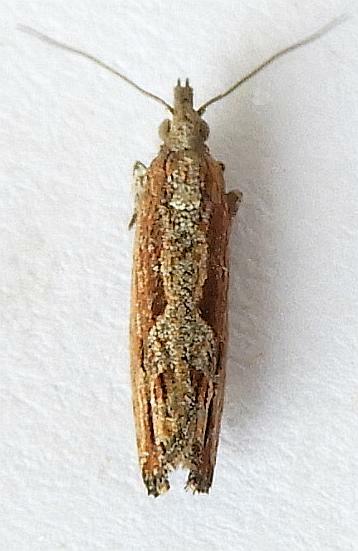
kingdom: Animalia
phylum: Arthropoda
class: Insecta
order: Lepidoptera
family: Tortricidae
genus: Strepsicrates
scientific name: Strepsicrates smithiana
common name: Bayberry leaftier moth
